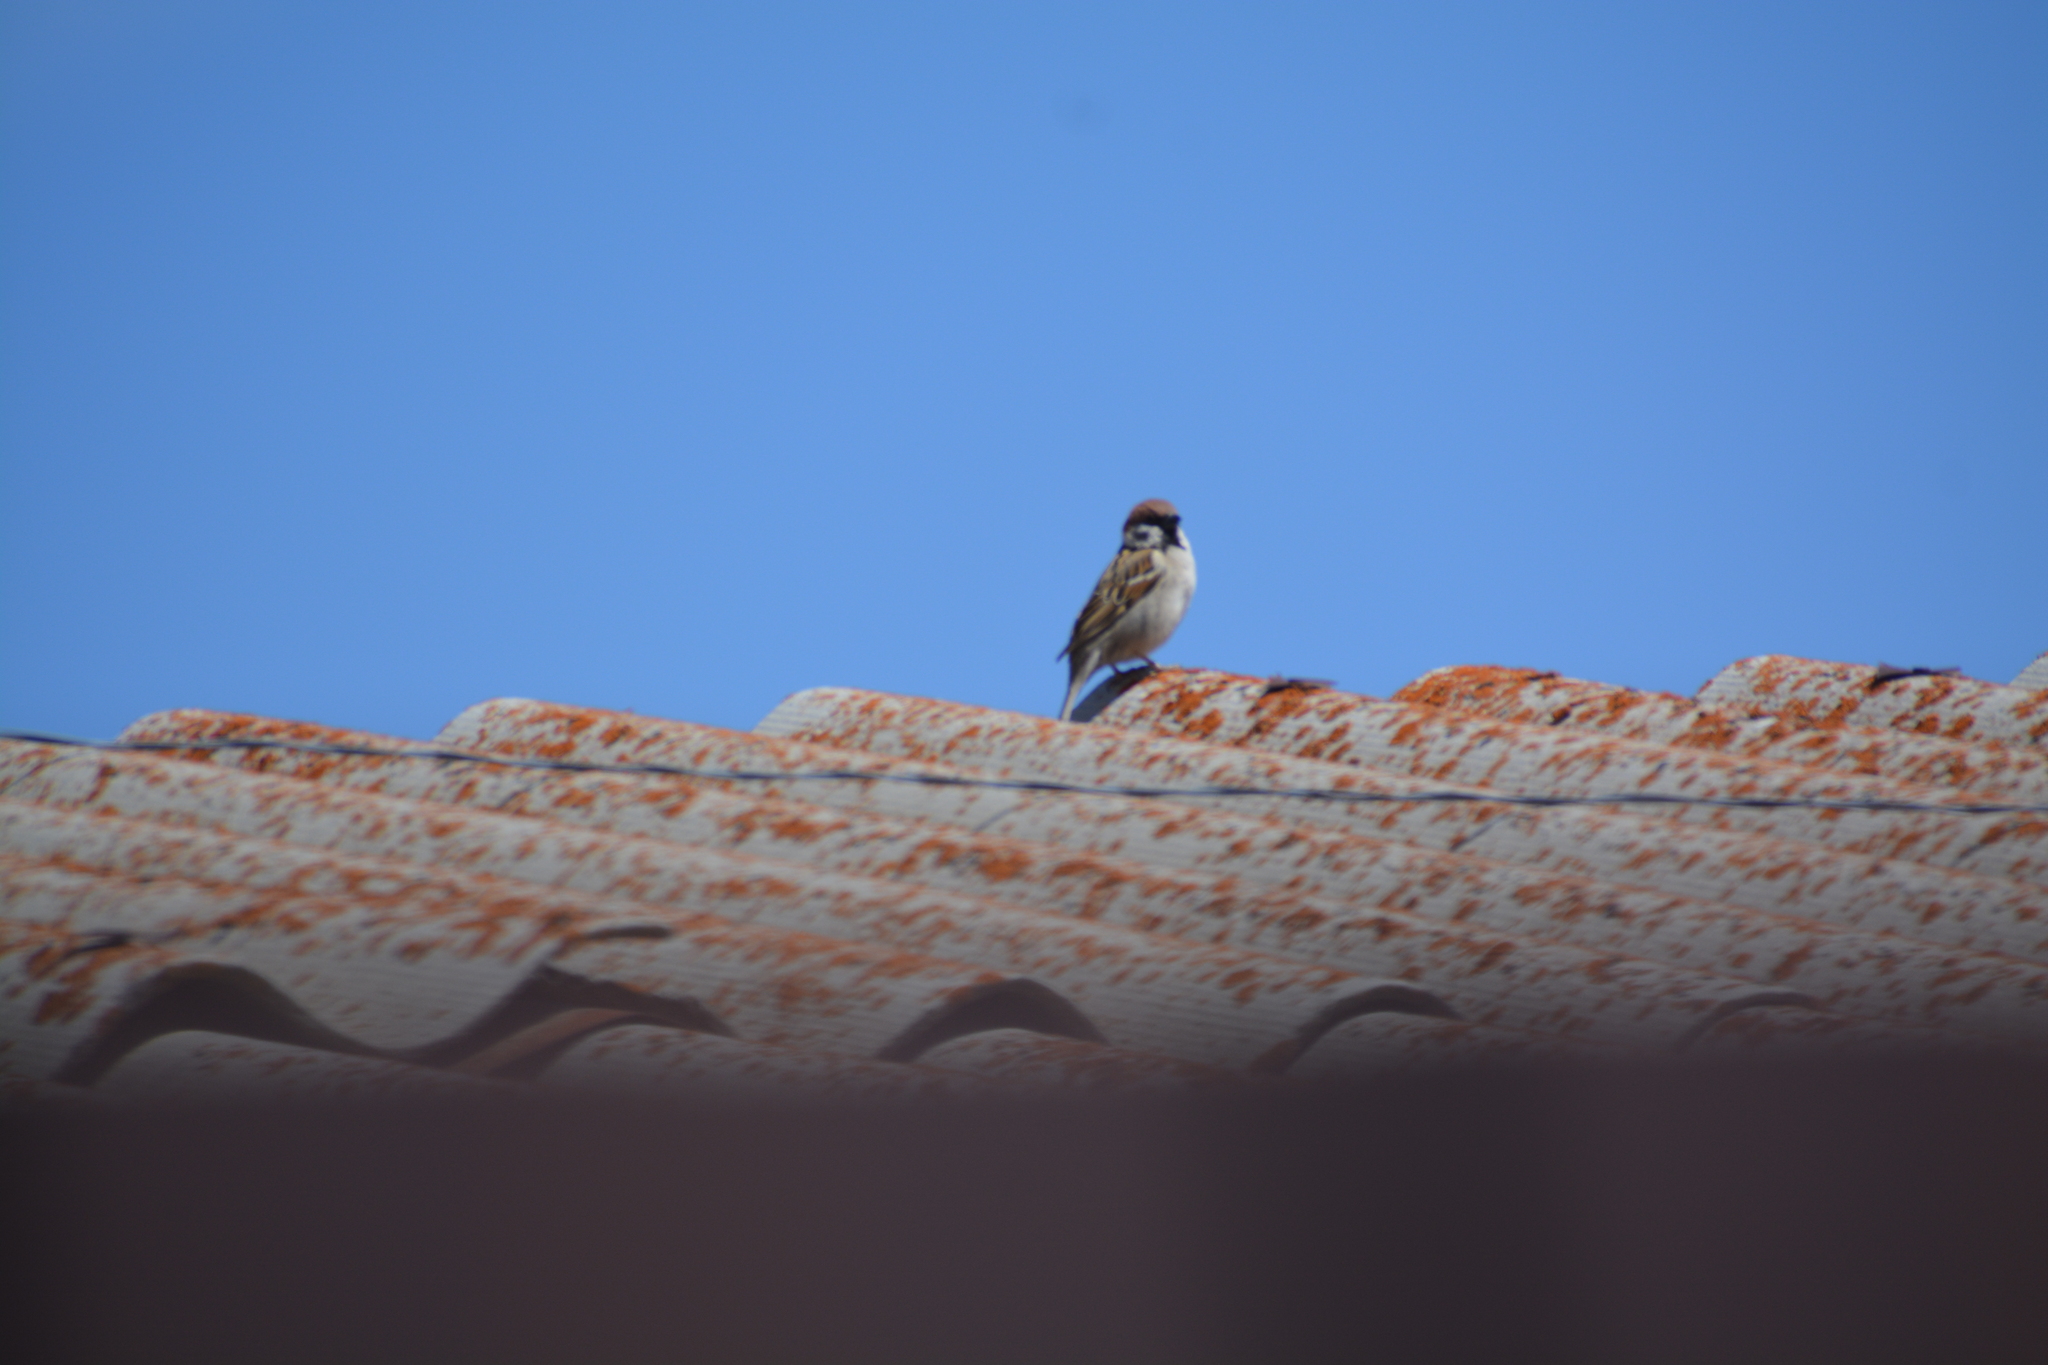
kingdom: Animalia
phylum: Chordata
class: Aves
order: Passeriformes
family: Passeridae
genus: Passer
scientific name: Passer montanus
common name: Eurasian tree sparrow
